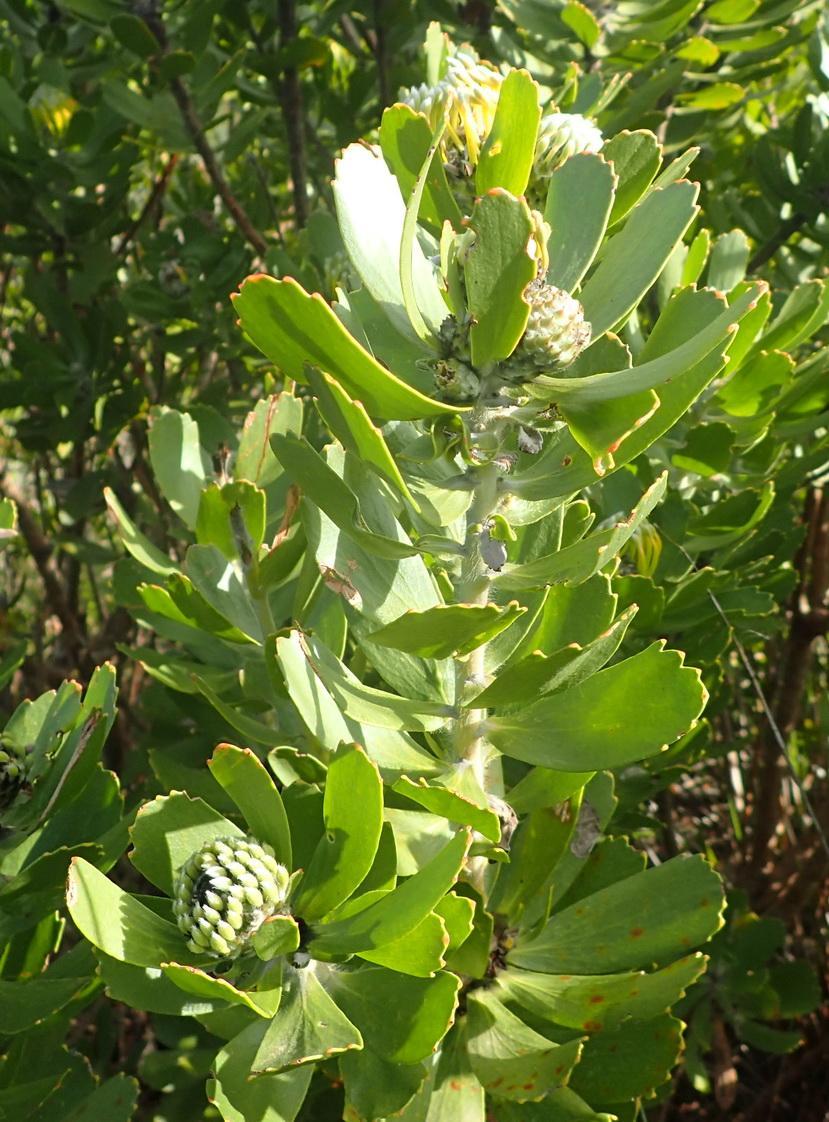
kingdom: Plantae
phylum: Tracheophyta
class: Magnoliopsida
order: Proteales
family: Proteaceae
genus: Leucospermum
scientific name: Leucospermum praecox
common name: Mossel bay pincushion
